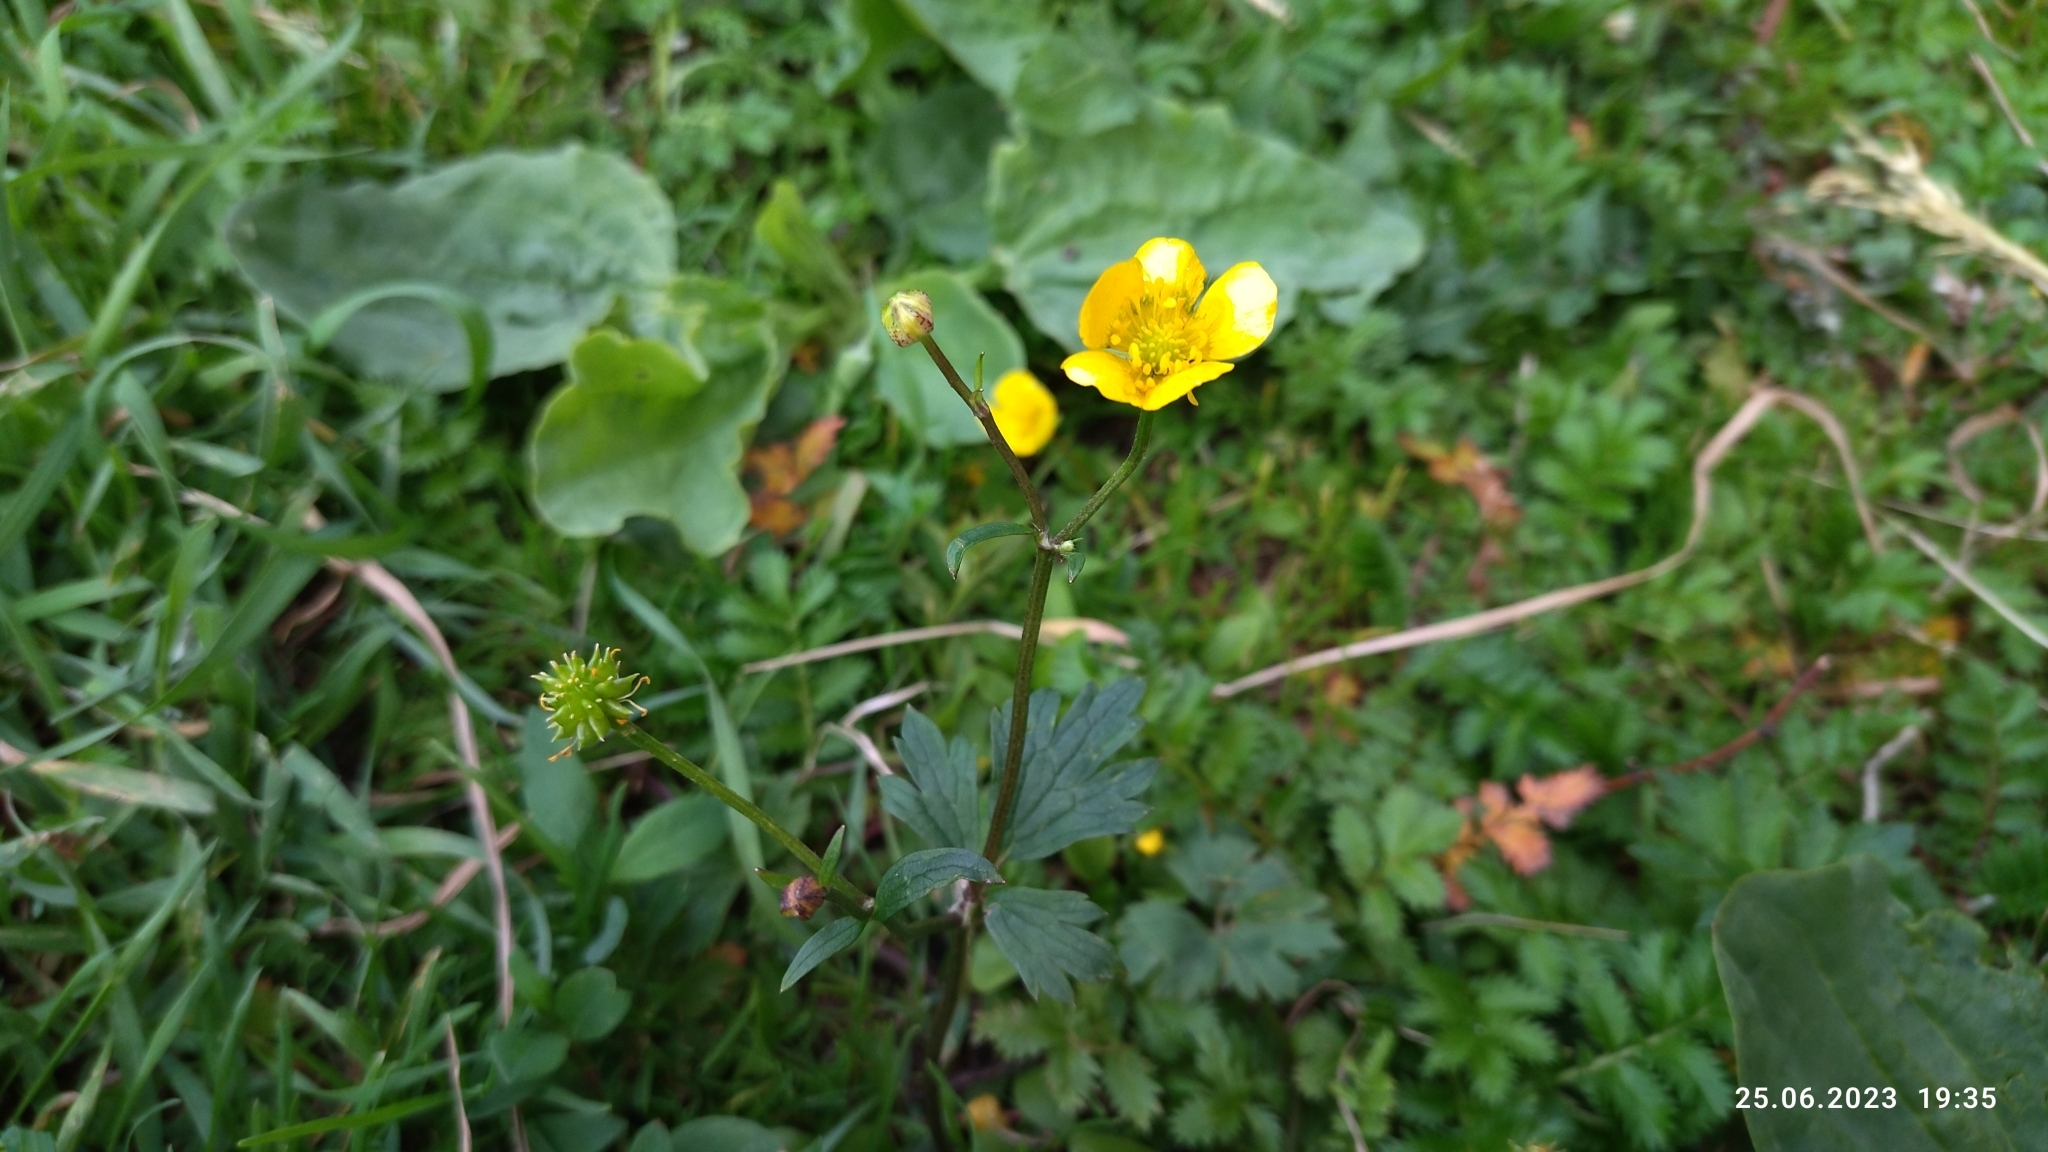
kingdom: Plantae
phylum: Tracheophyta
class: Magnoliopsida
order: Ranunculales
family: Ranunculaceae
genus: Ranunculus
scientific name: Ranunculus repens
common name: Creeping buttercup
